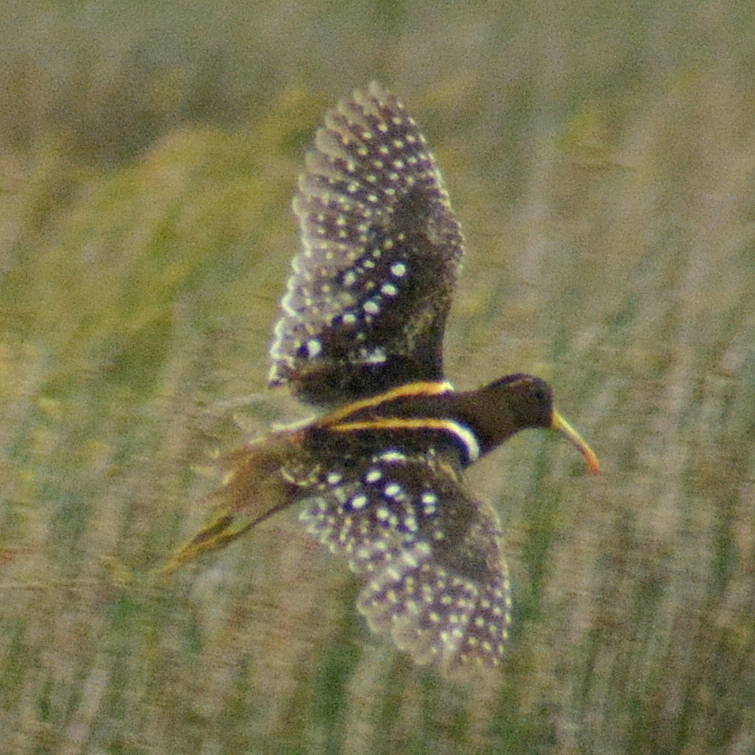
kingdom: Animalia
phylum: Chordata
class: Aves
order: Charadriiformes
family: Rostratulidae
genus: Nycticryphes
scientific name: Nycticryphes semicollaris
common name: South american painted-snipe
